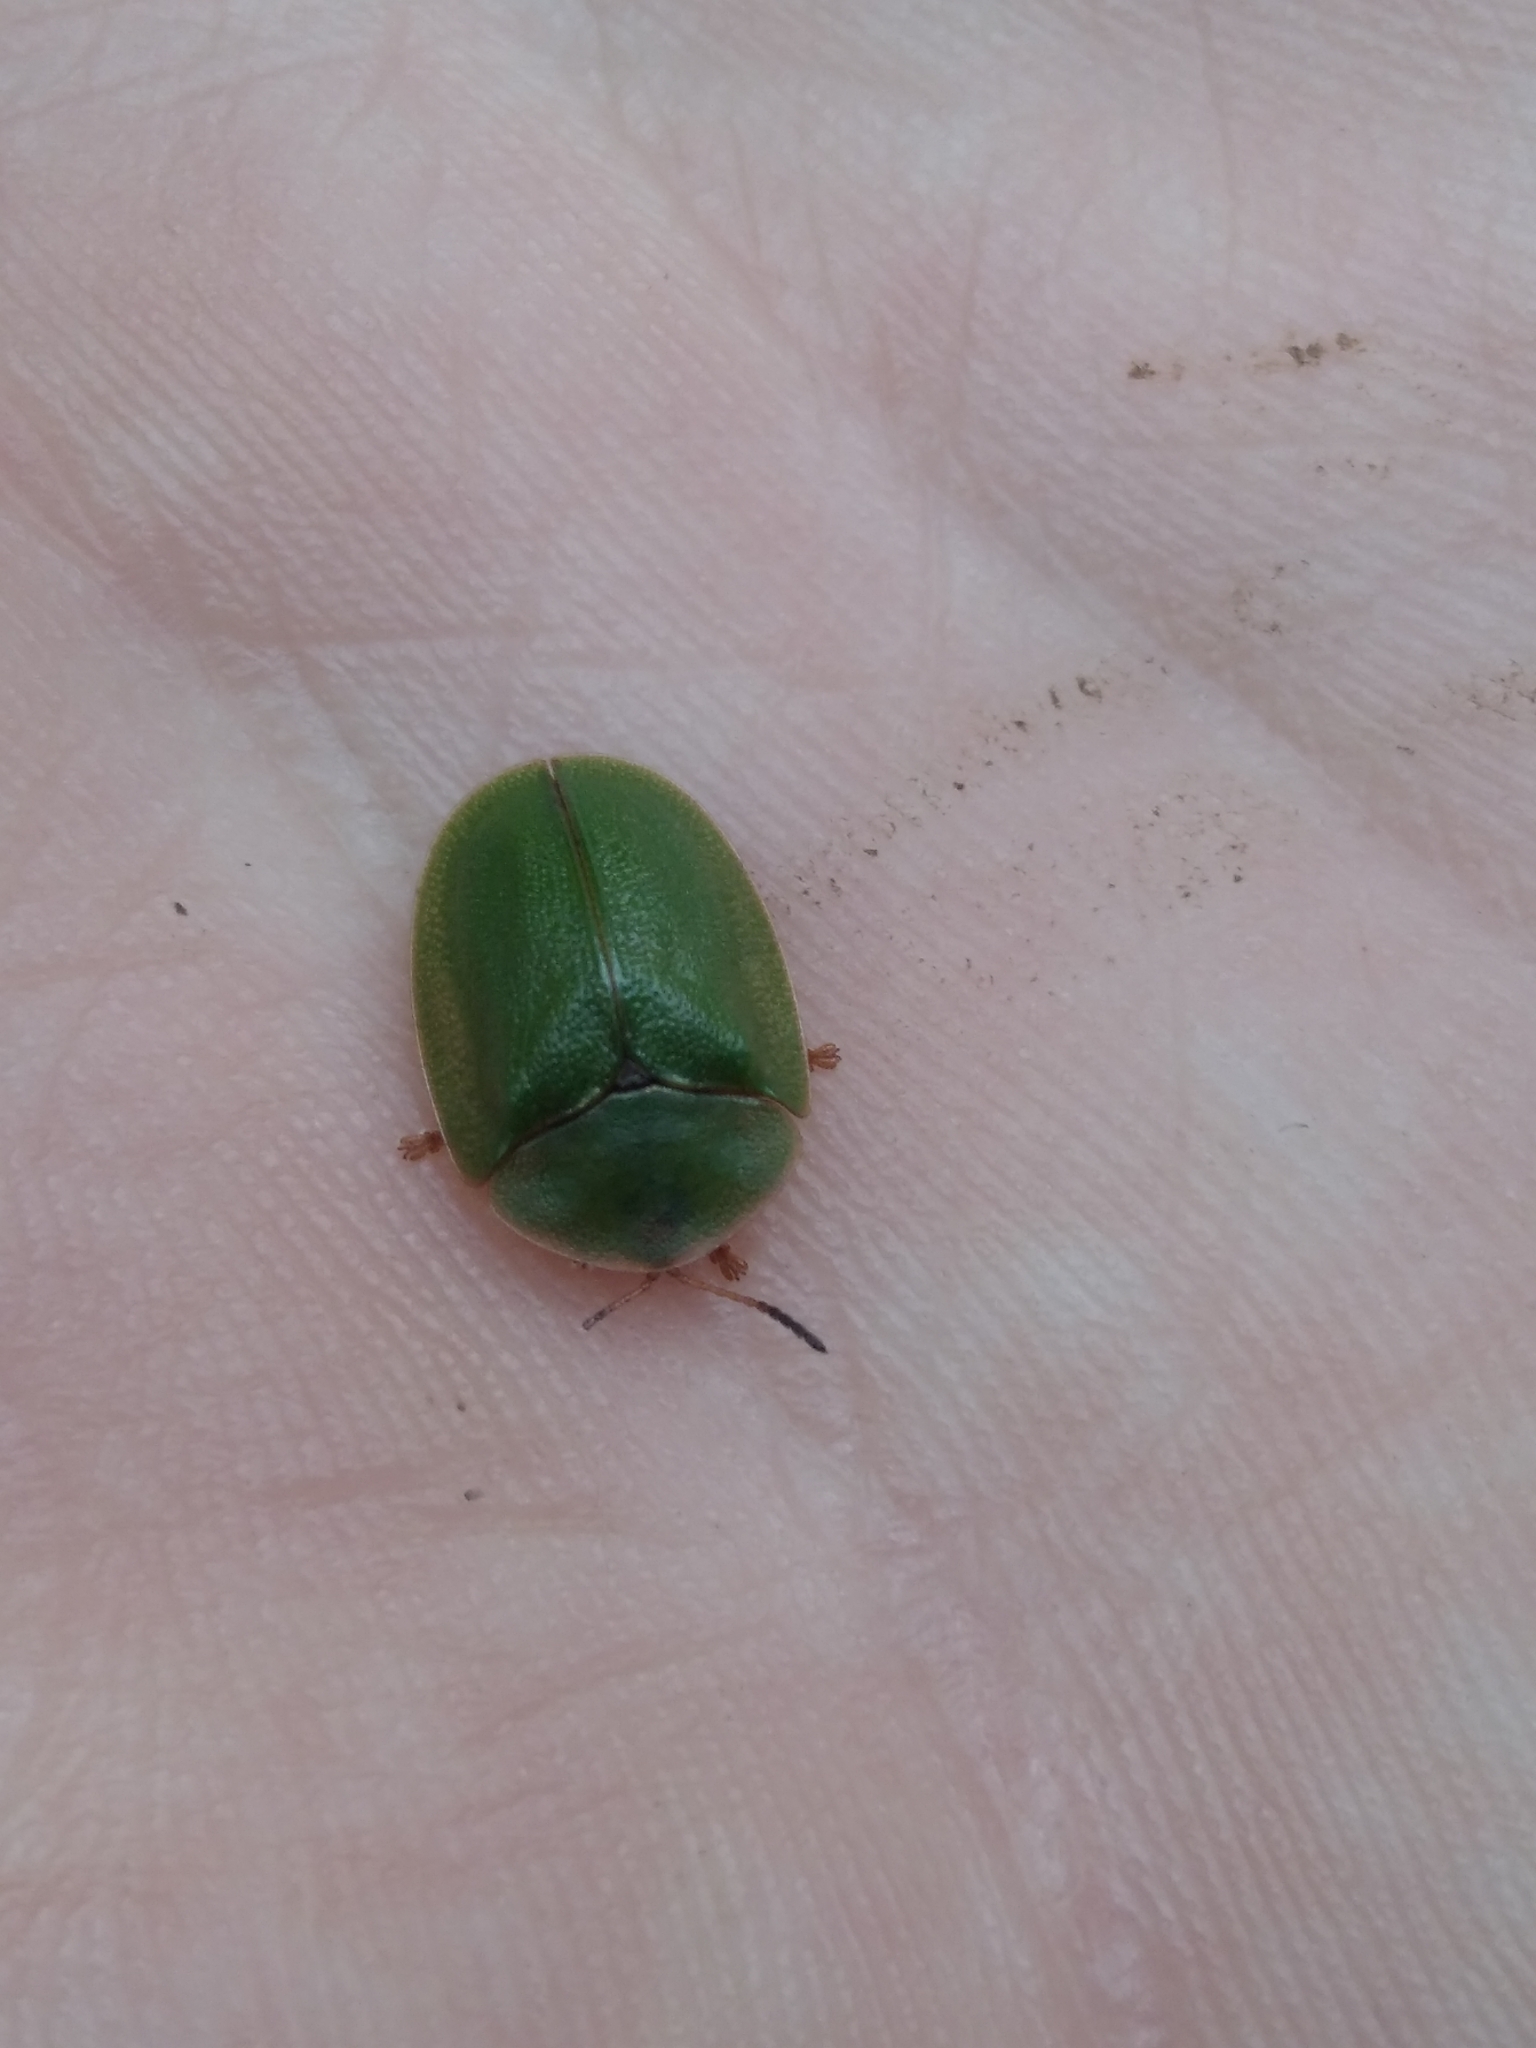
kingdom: Animalia
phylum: Arthropoda
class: Insecta
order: Coleoptera
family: Chrysomelidae
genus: Cassida
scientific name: Cassida viridis
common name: Green tortoise beetle
